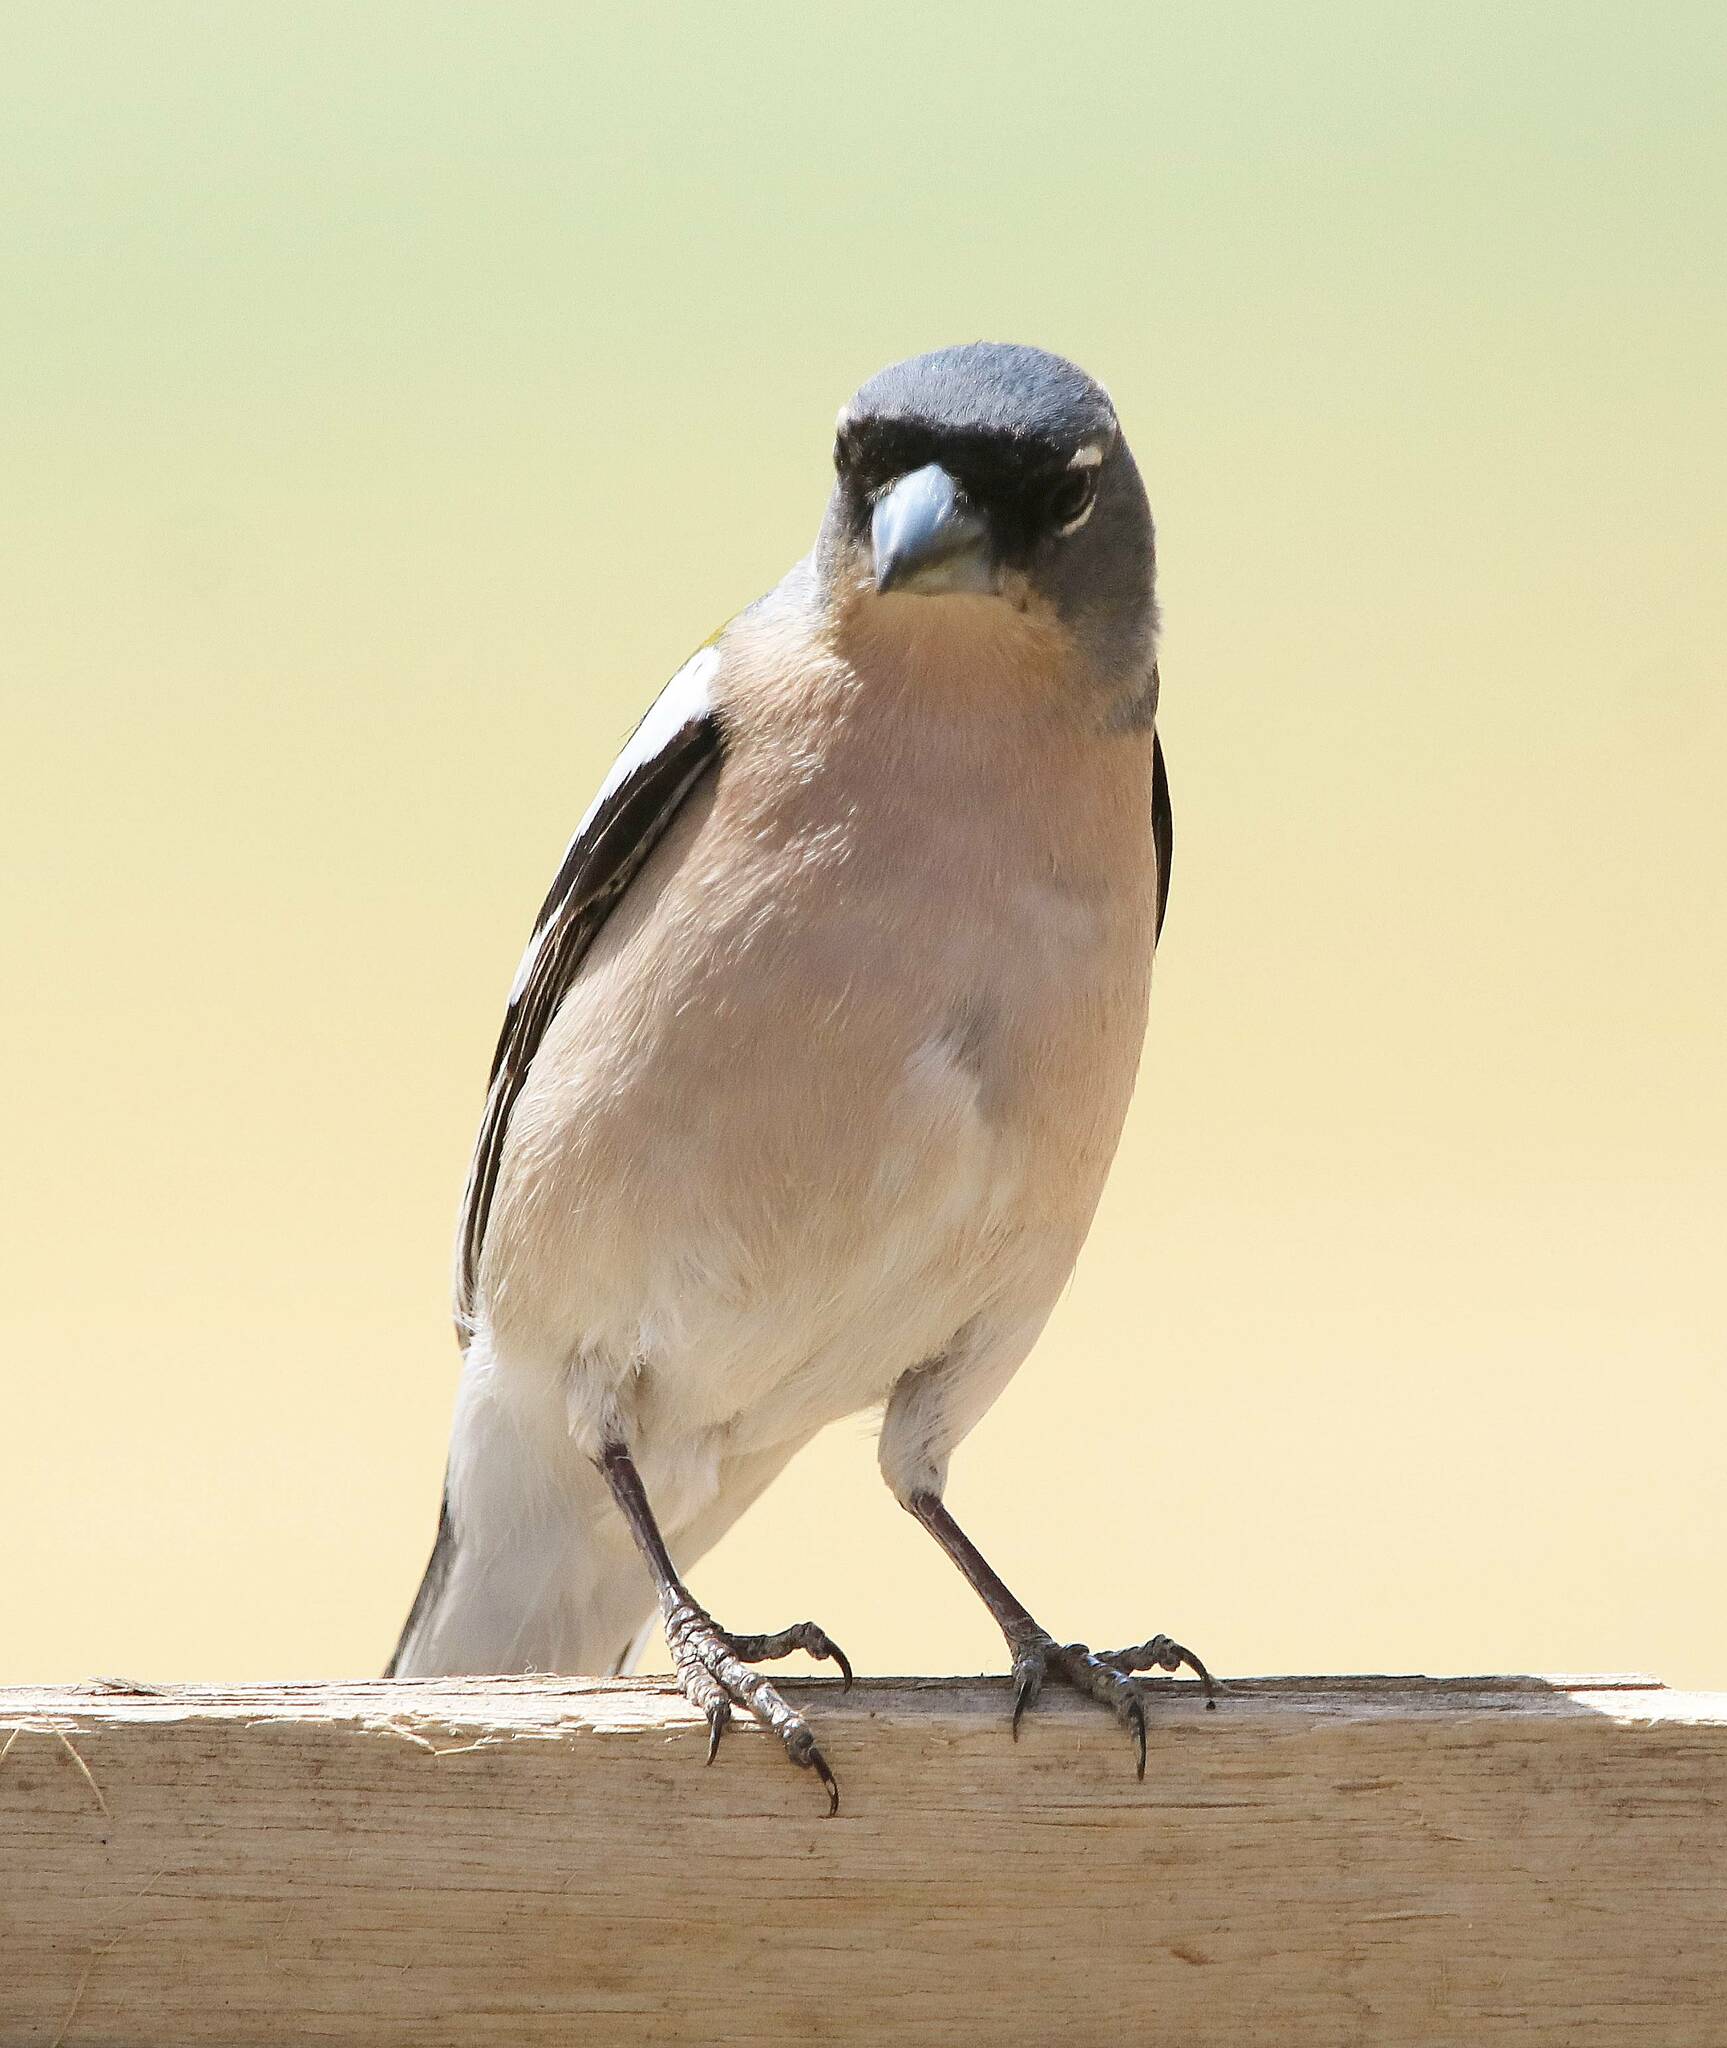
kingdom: Animalia
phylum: Chordata
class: Aves
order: Passeriformes
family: Fringillidae
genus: Fringilla
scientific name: Fringilla spodiogenys
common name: African chaffinch
